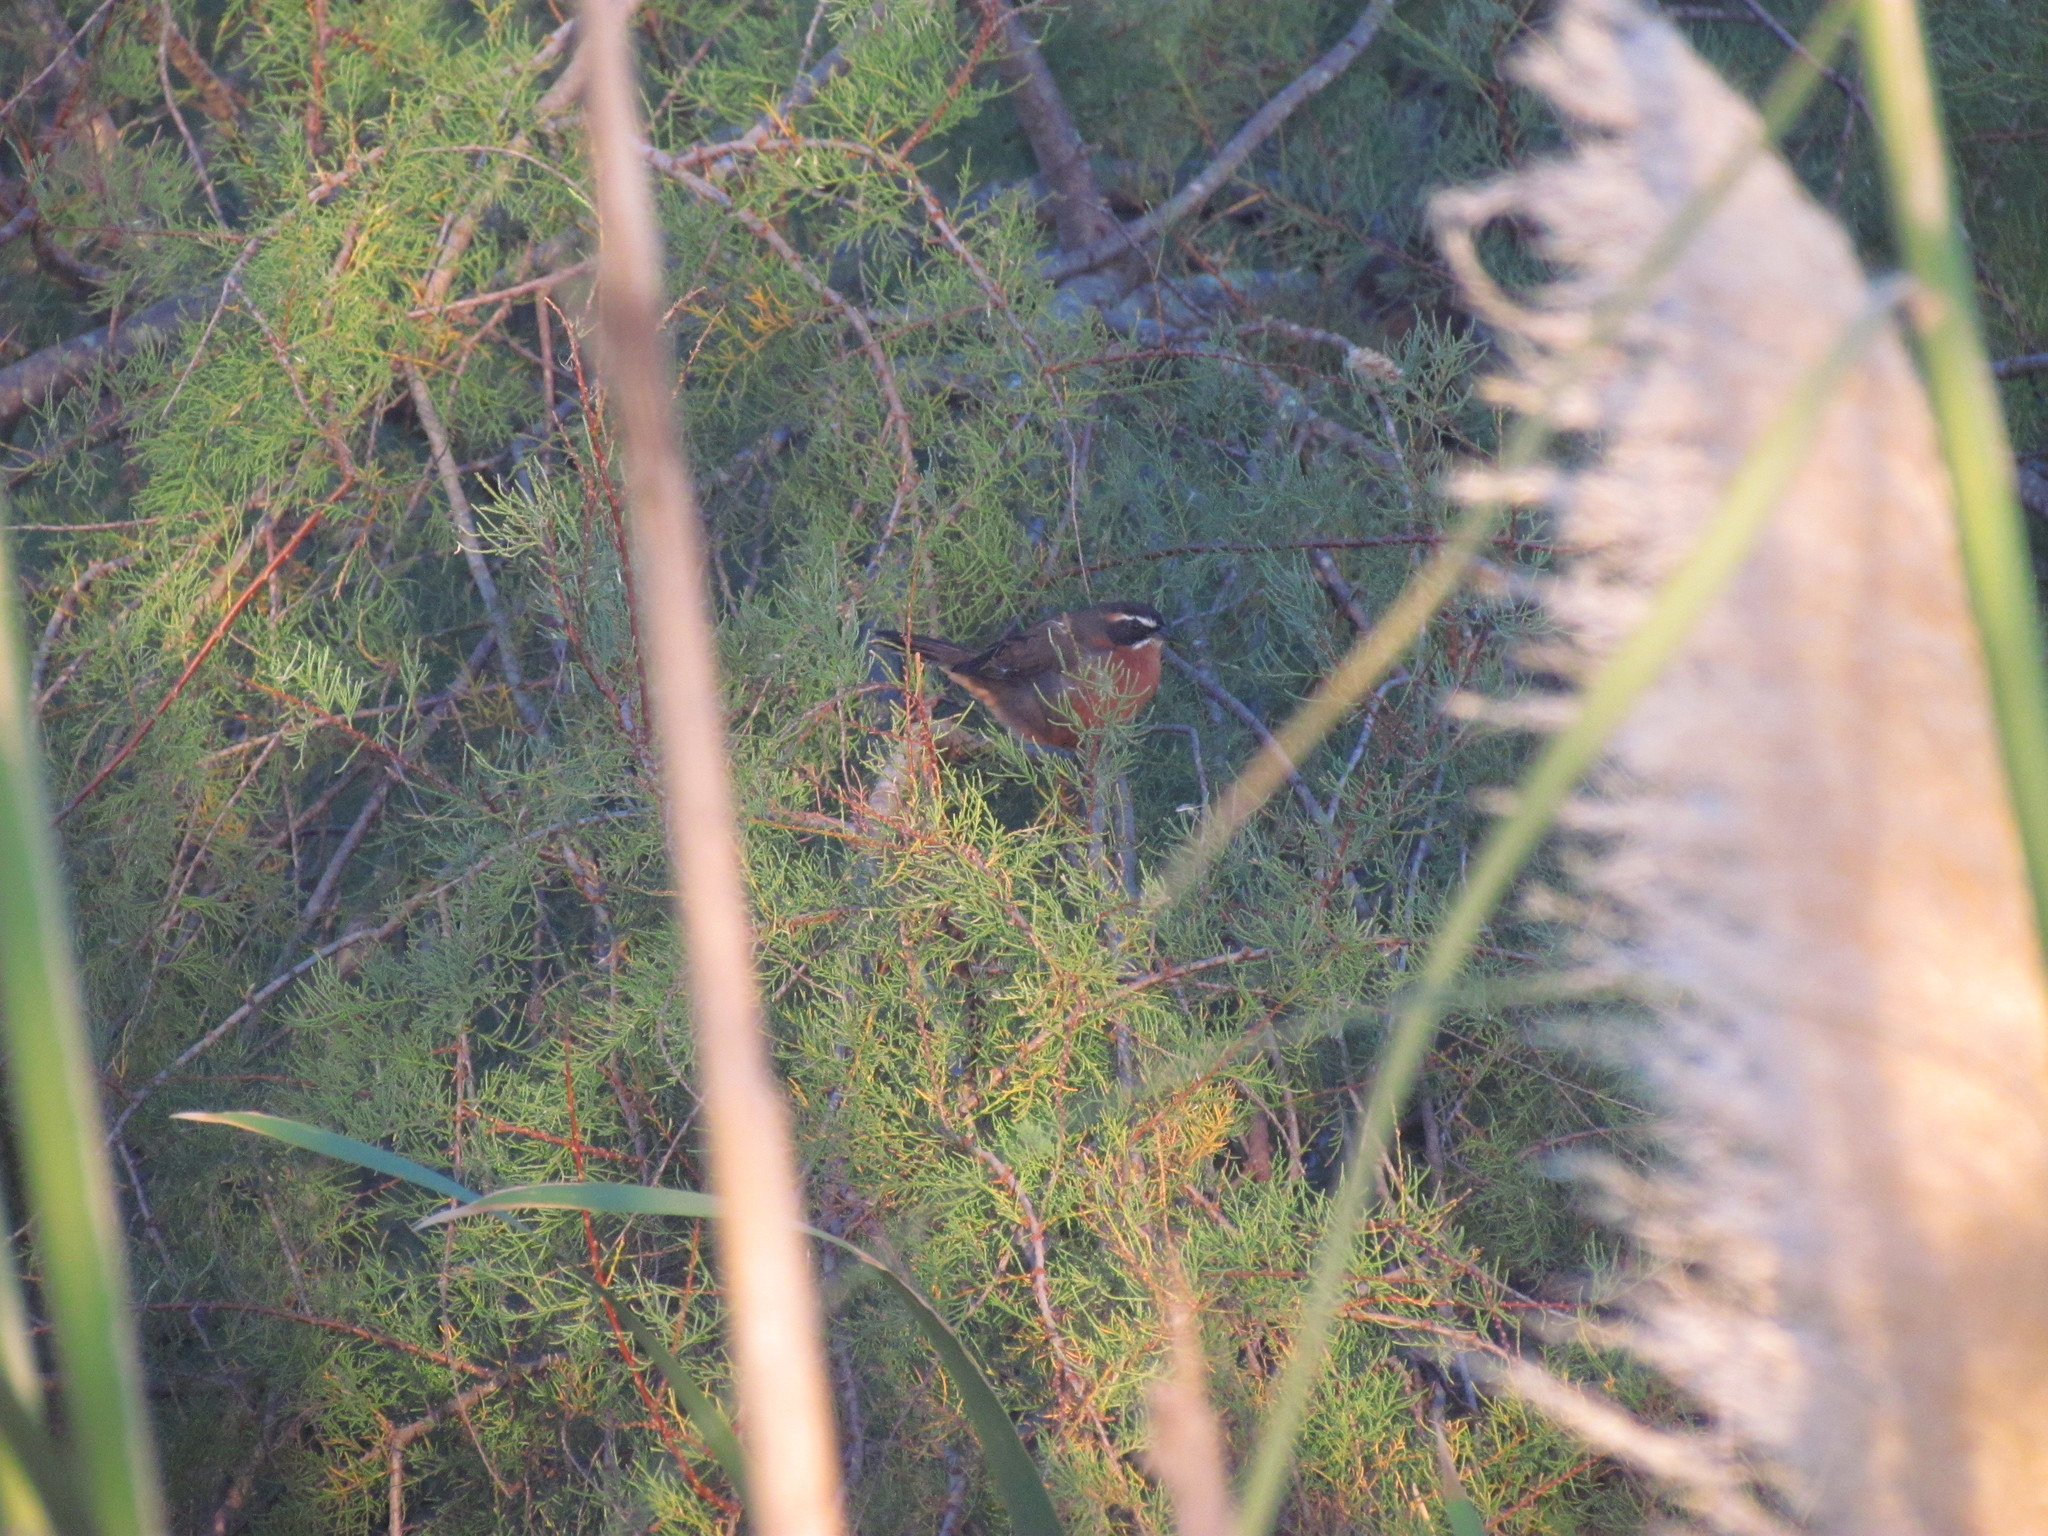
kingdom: Animalia
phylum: Chordata
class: Aves
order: Passeriformes
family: Thraupidae
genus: Poospiza
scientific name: Poospiza nigrorufa
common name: Black-and-rufous warbling finch
